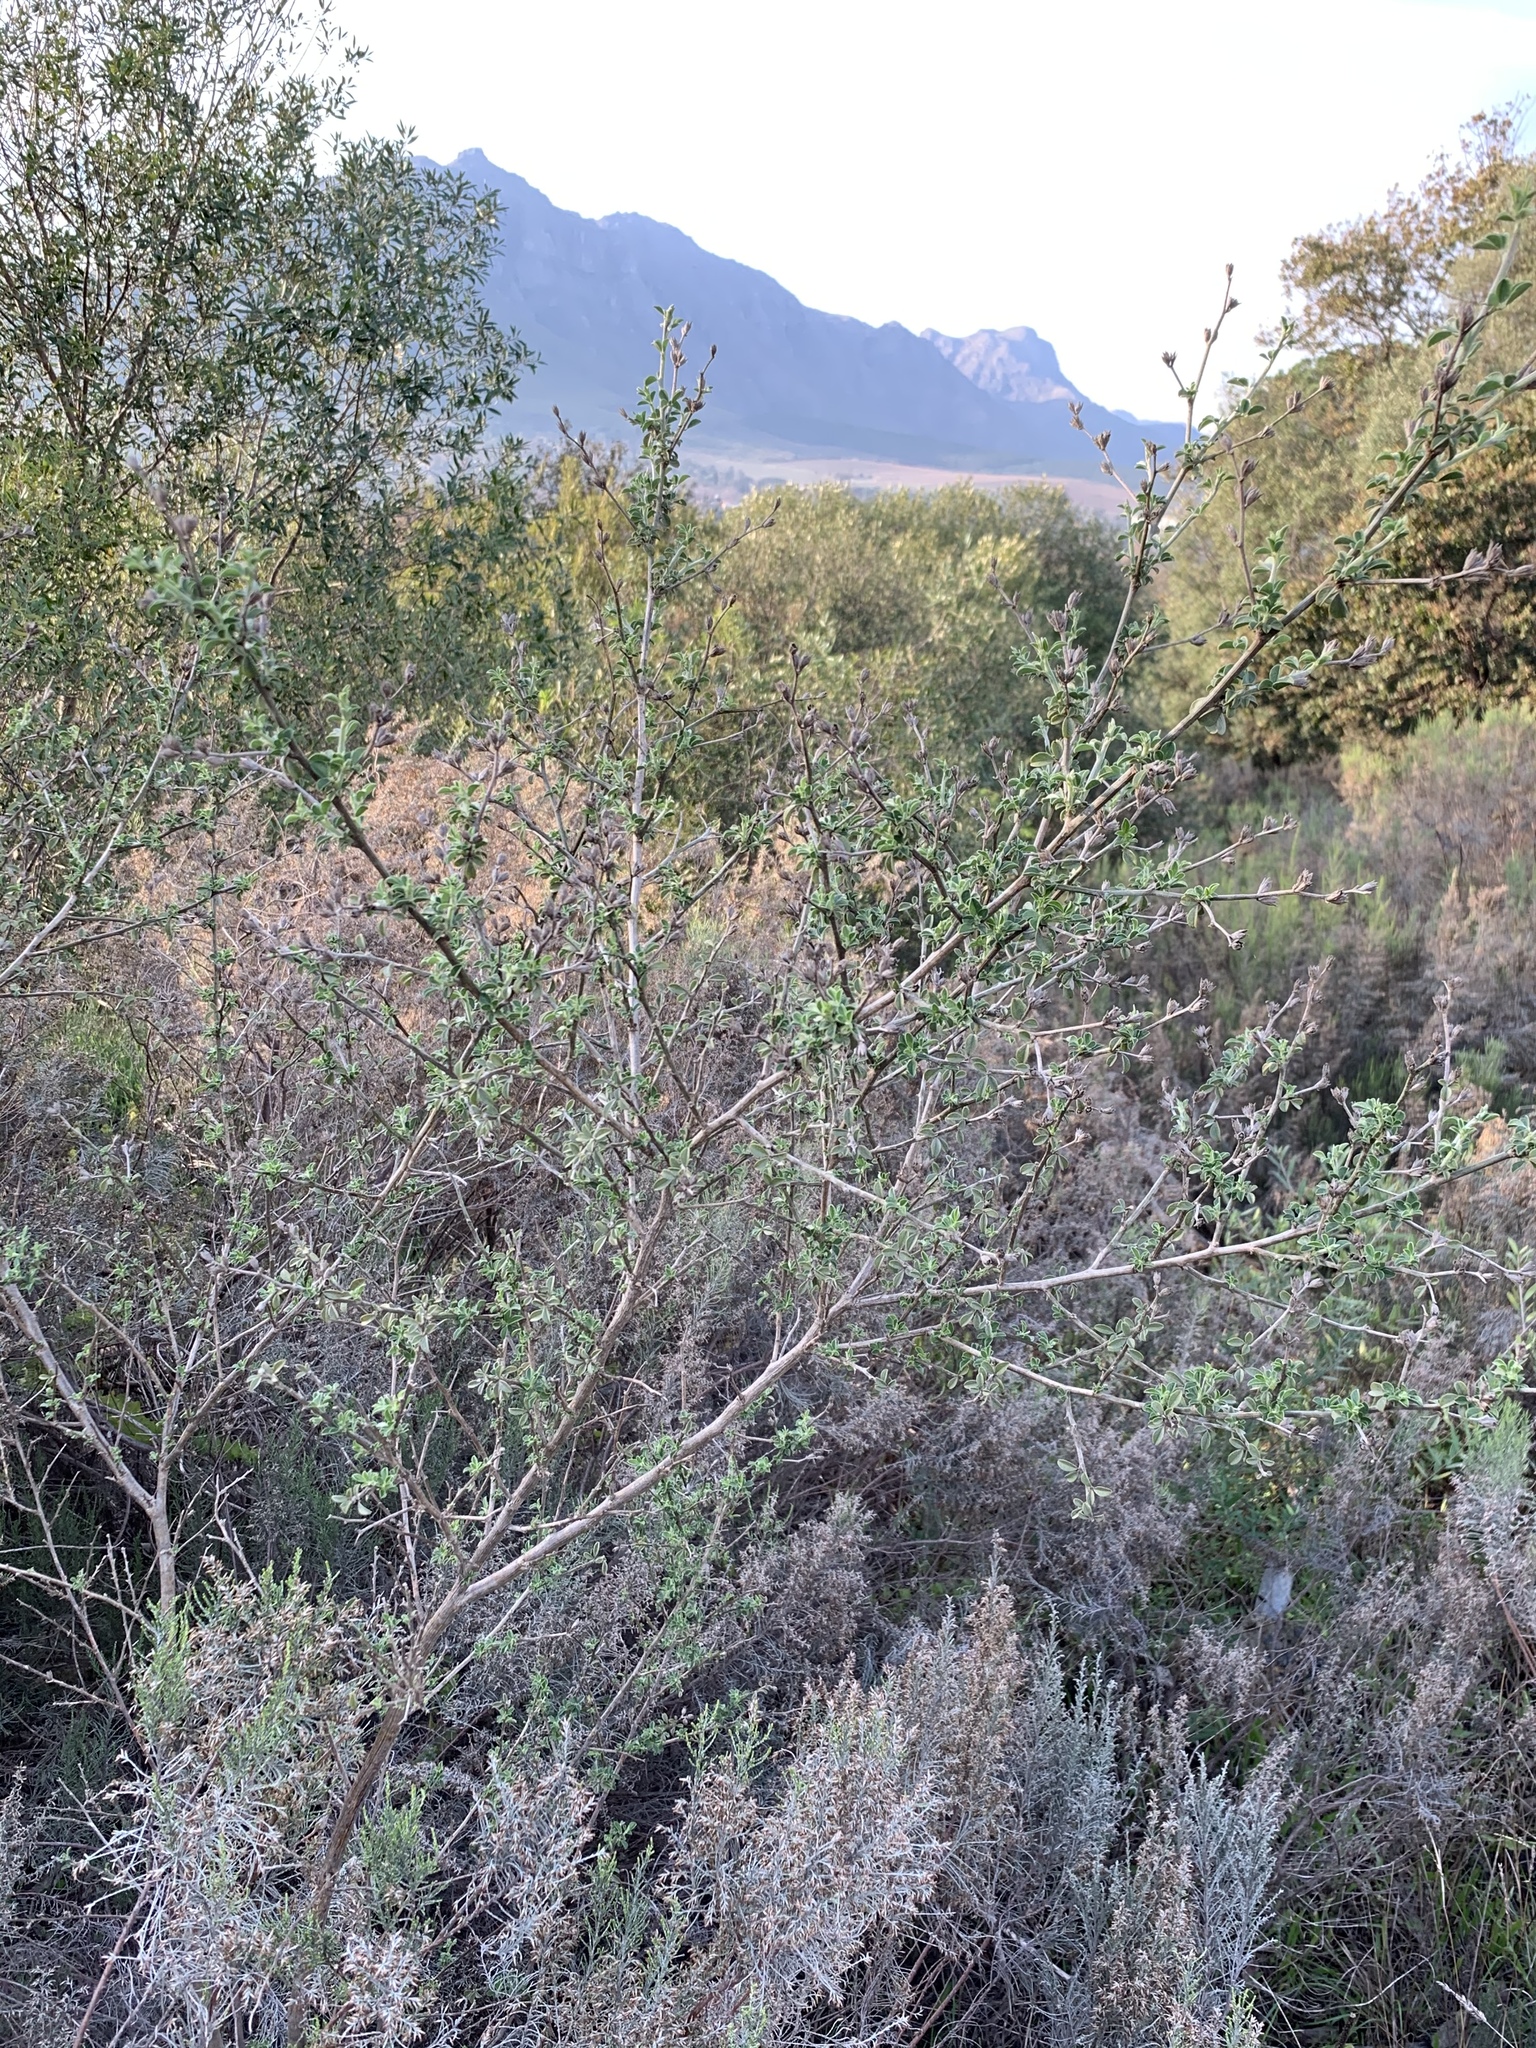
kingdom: Plantae
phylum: Tracheophyta
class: Magnoliopsida
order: Fabales
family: Fabaceae
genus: Psoralea
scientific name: Psoralea hirta
